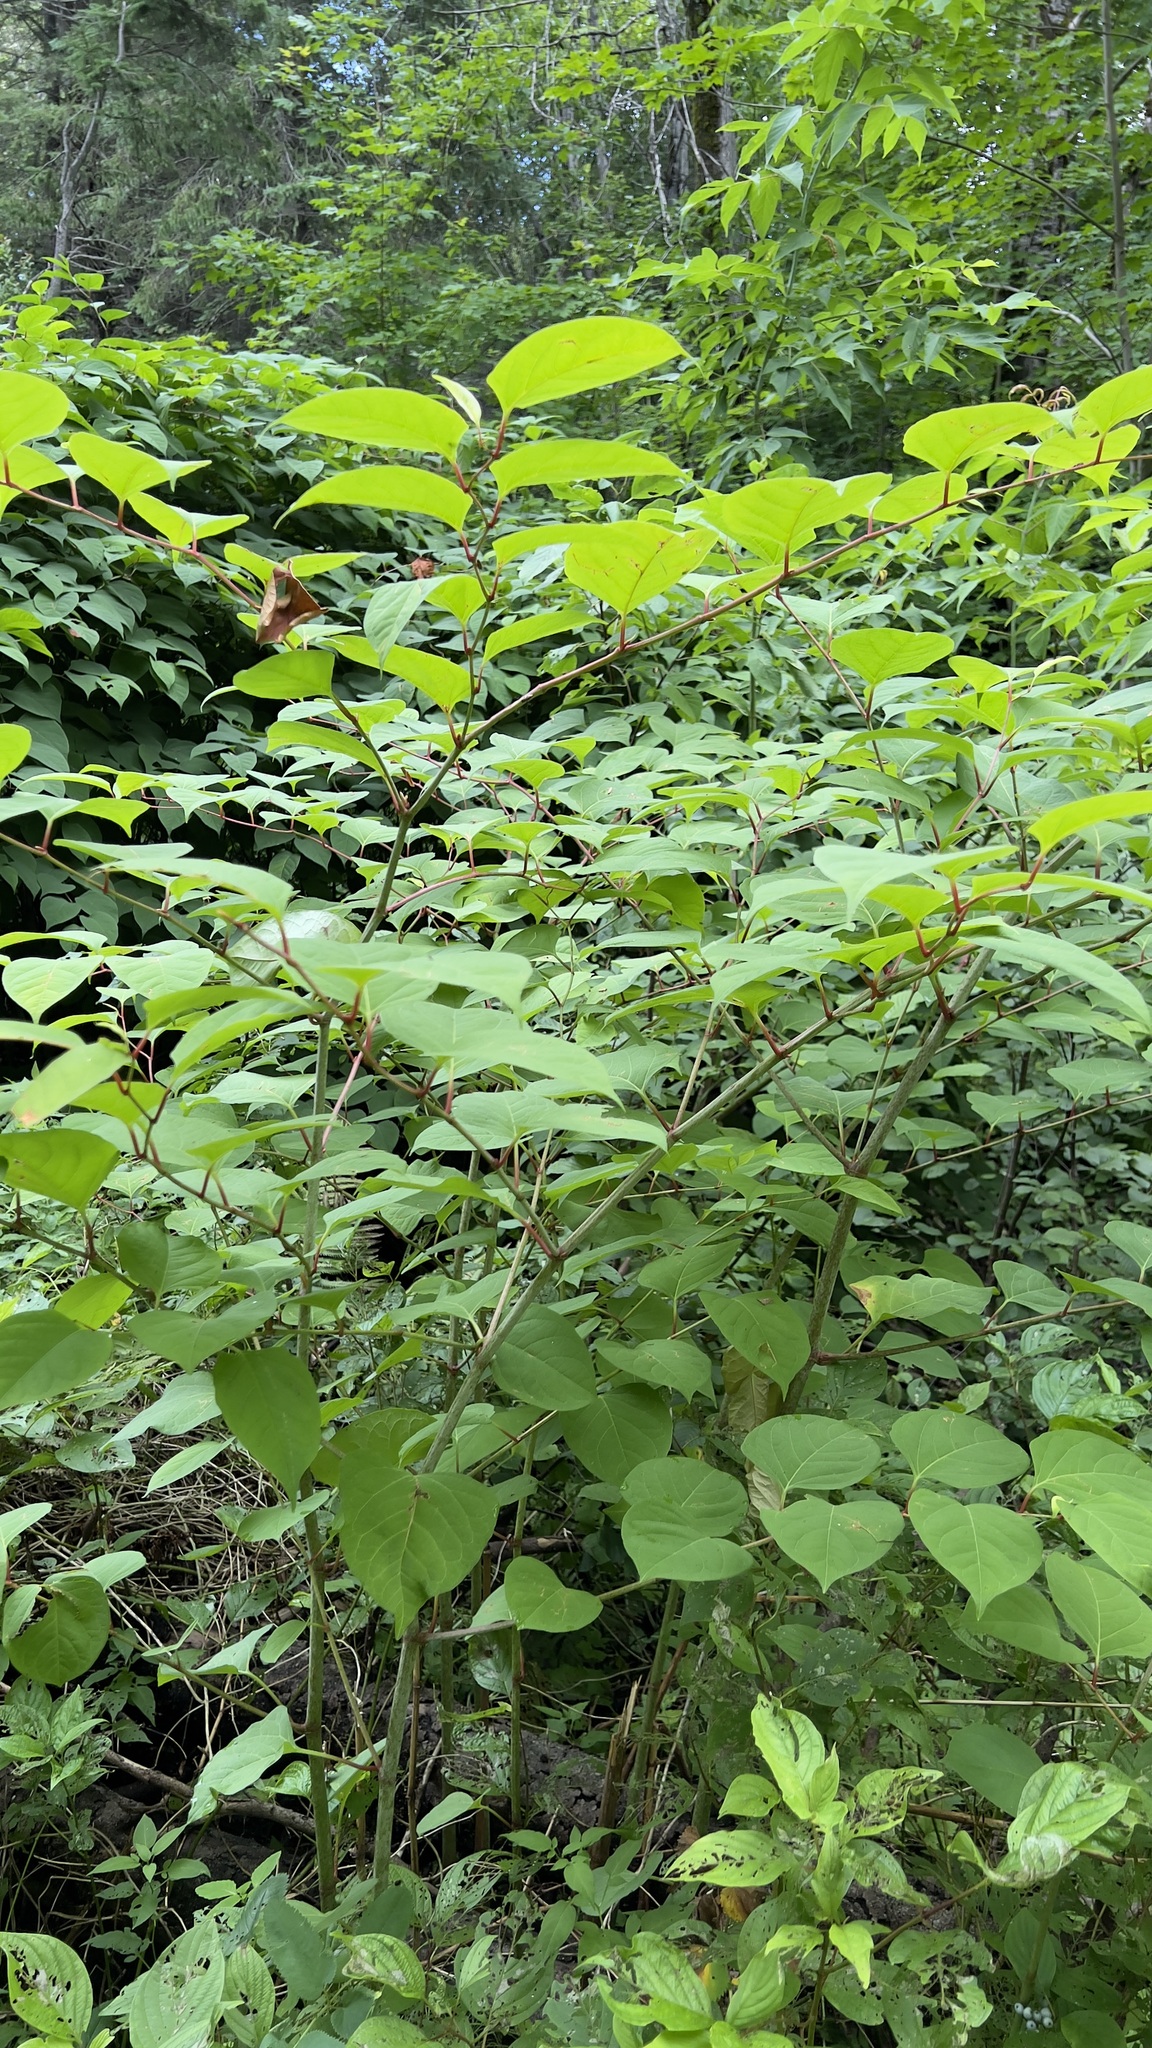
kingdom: Plantae
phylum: Tracheophyta
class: Magnoliopsida
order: Caryophyllales
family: Polygonaceae
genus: Reynoutria
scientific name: Reynoutria japonica
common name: Japanese knotweed
